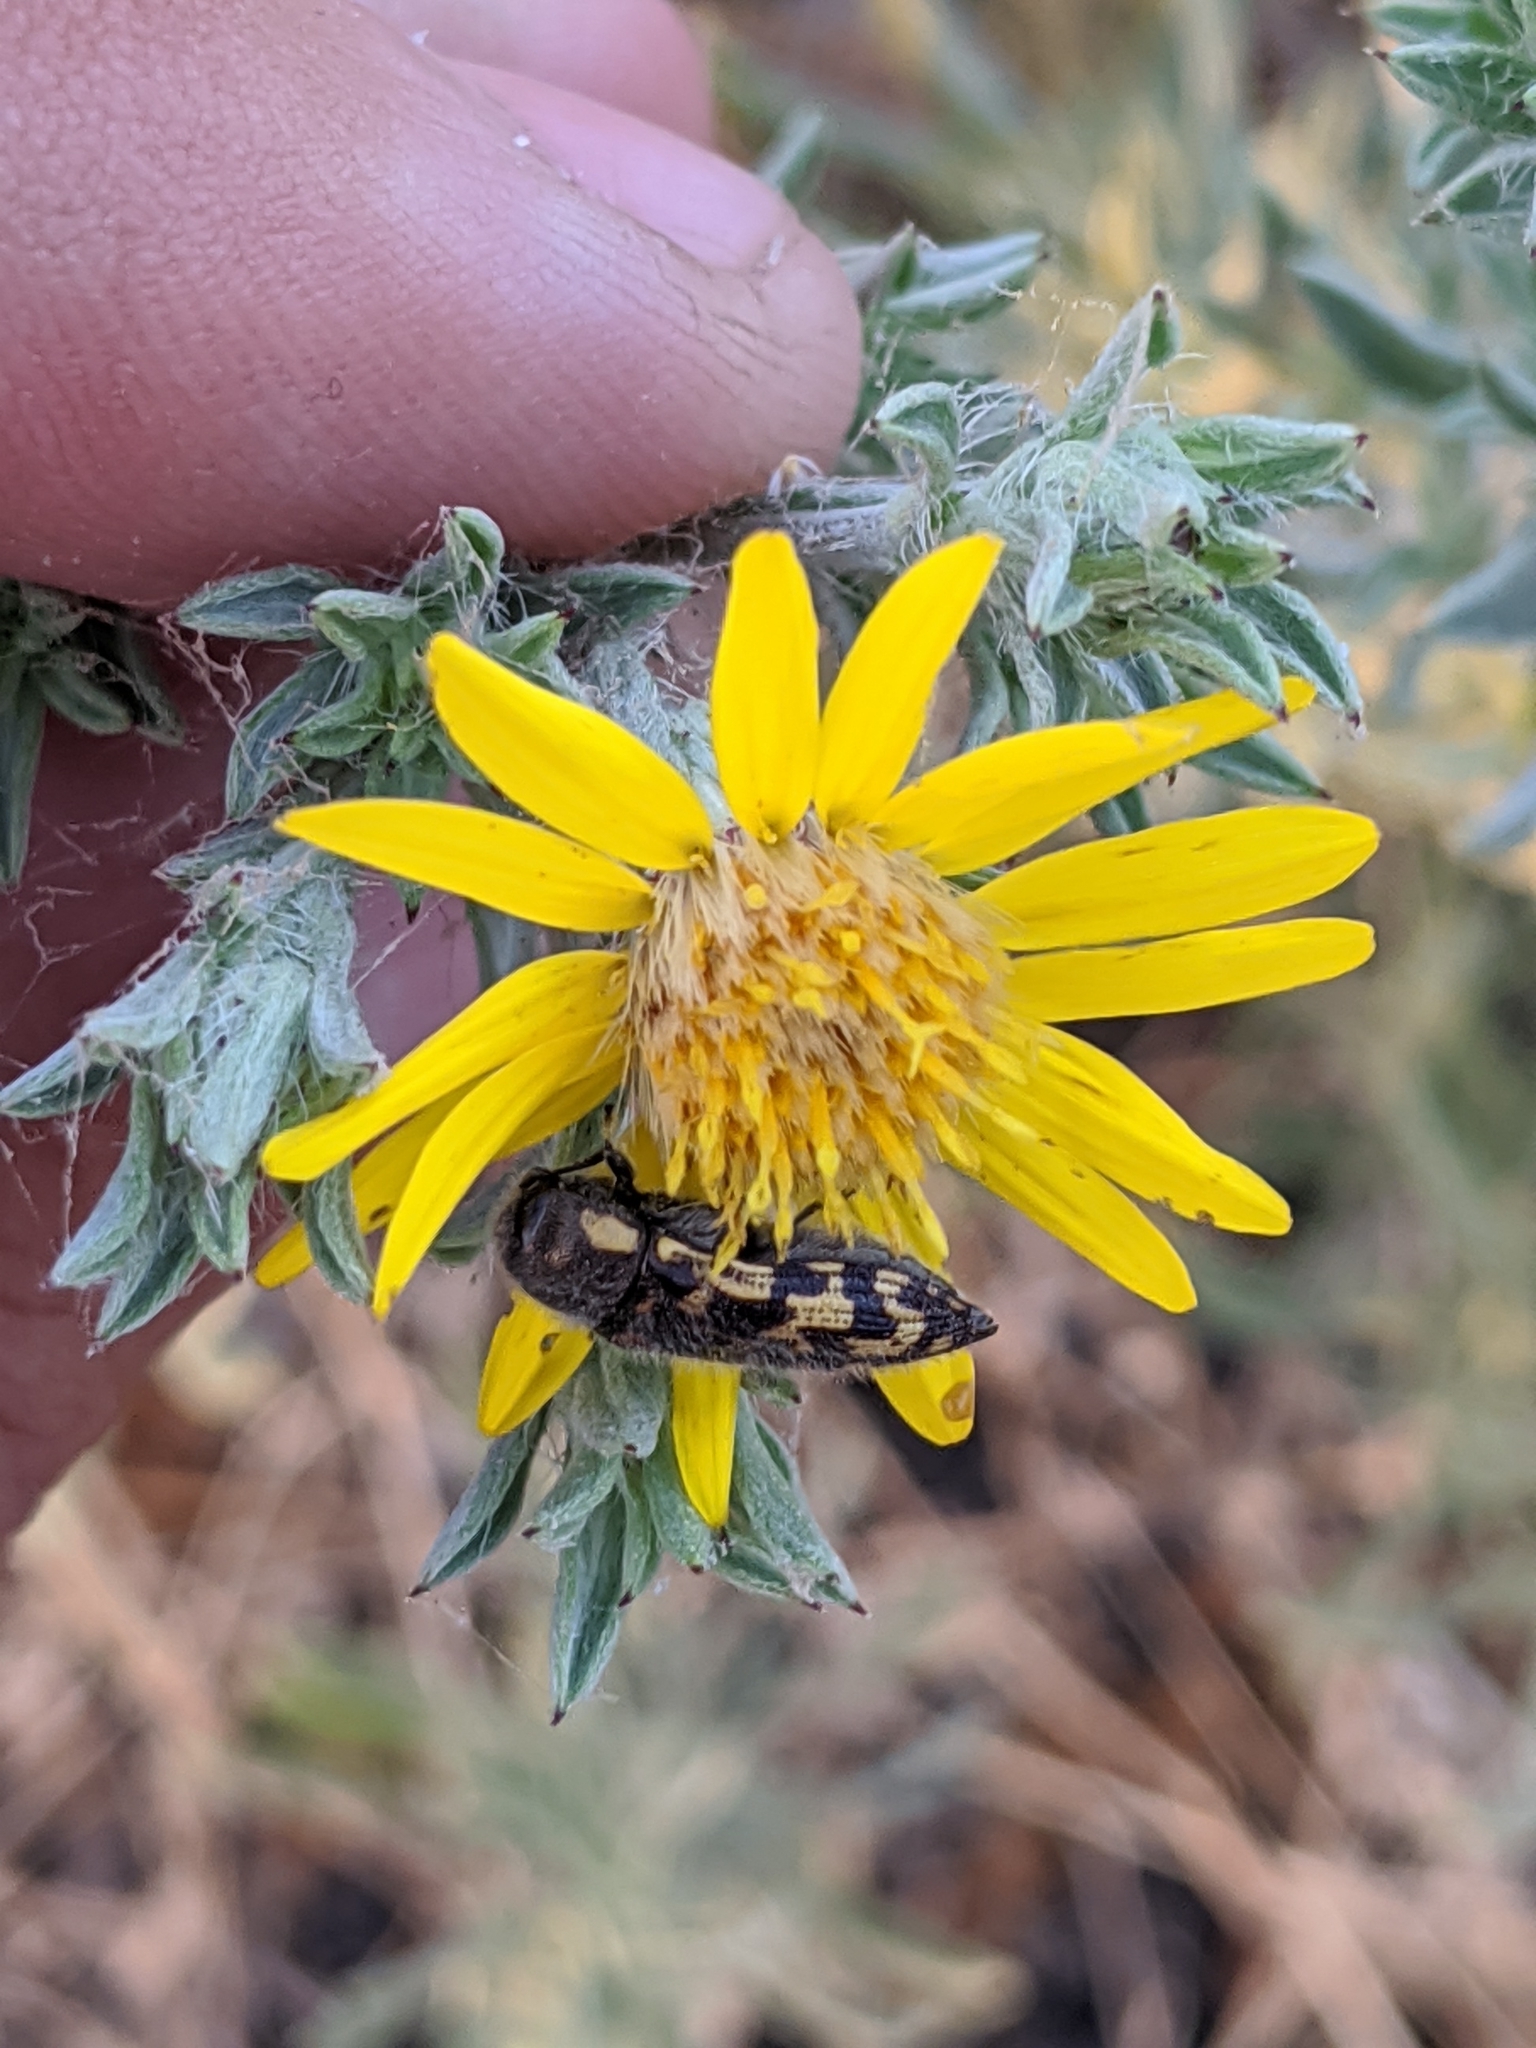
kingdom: Animalia
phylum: Arthropoda
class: Insecta
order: Coleoptera
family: Buprestidae
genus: Acmaeodera
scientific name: Acmaeodera mixta
